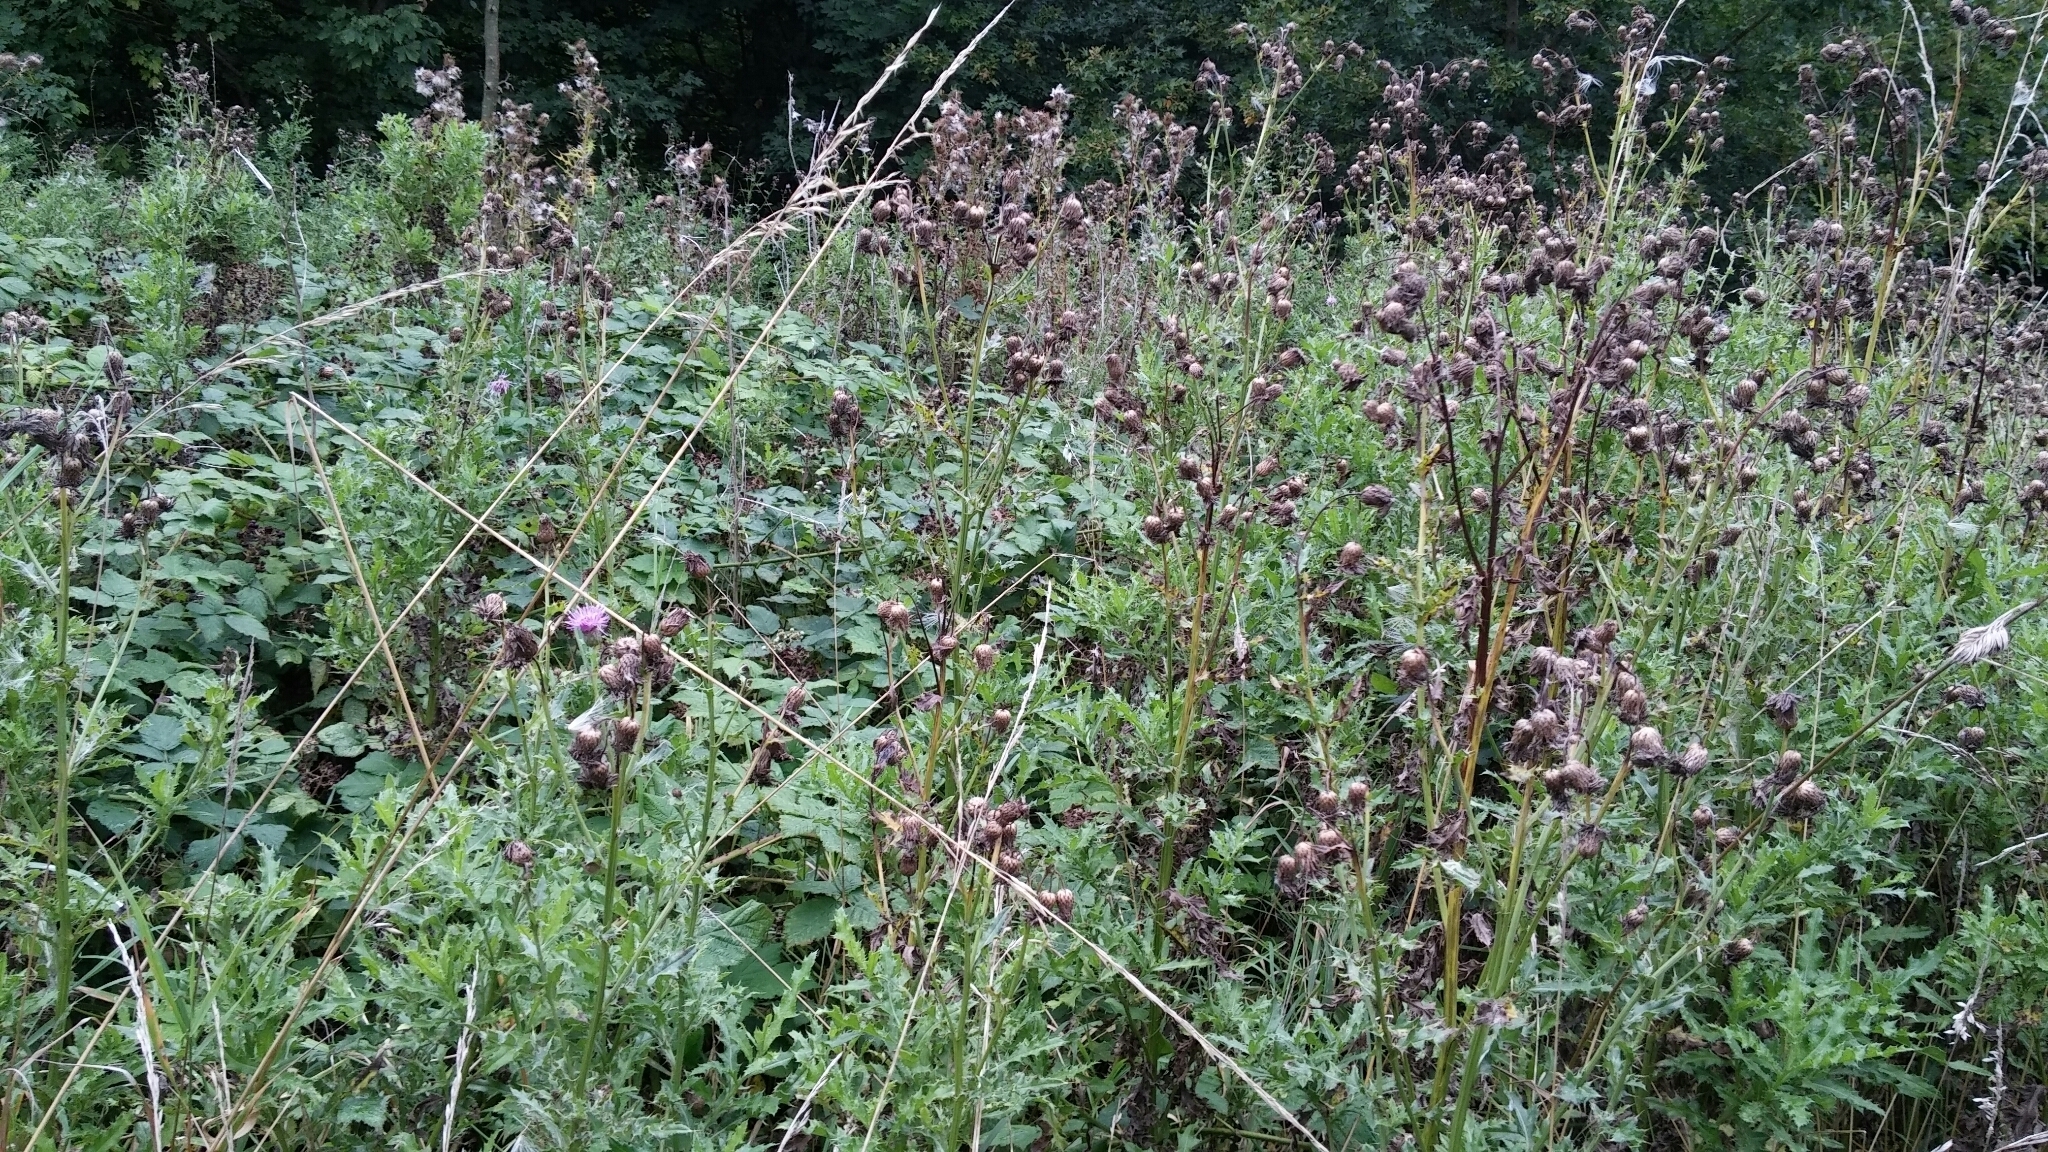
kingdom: Plantae
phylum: Tracheophyta
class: Magnoliopsida
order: Asterales
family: Asteraceae
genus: Cirsium
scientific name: Cirsium arvense
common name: Creeping thistle
